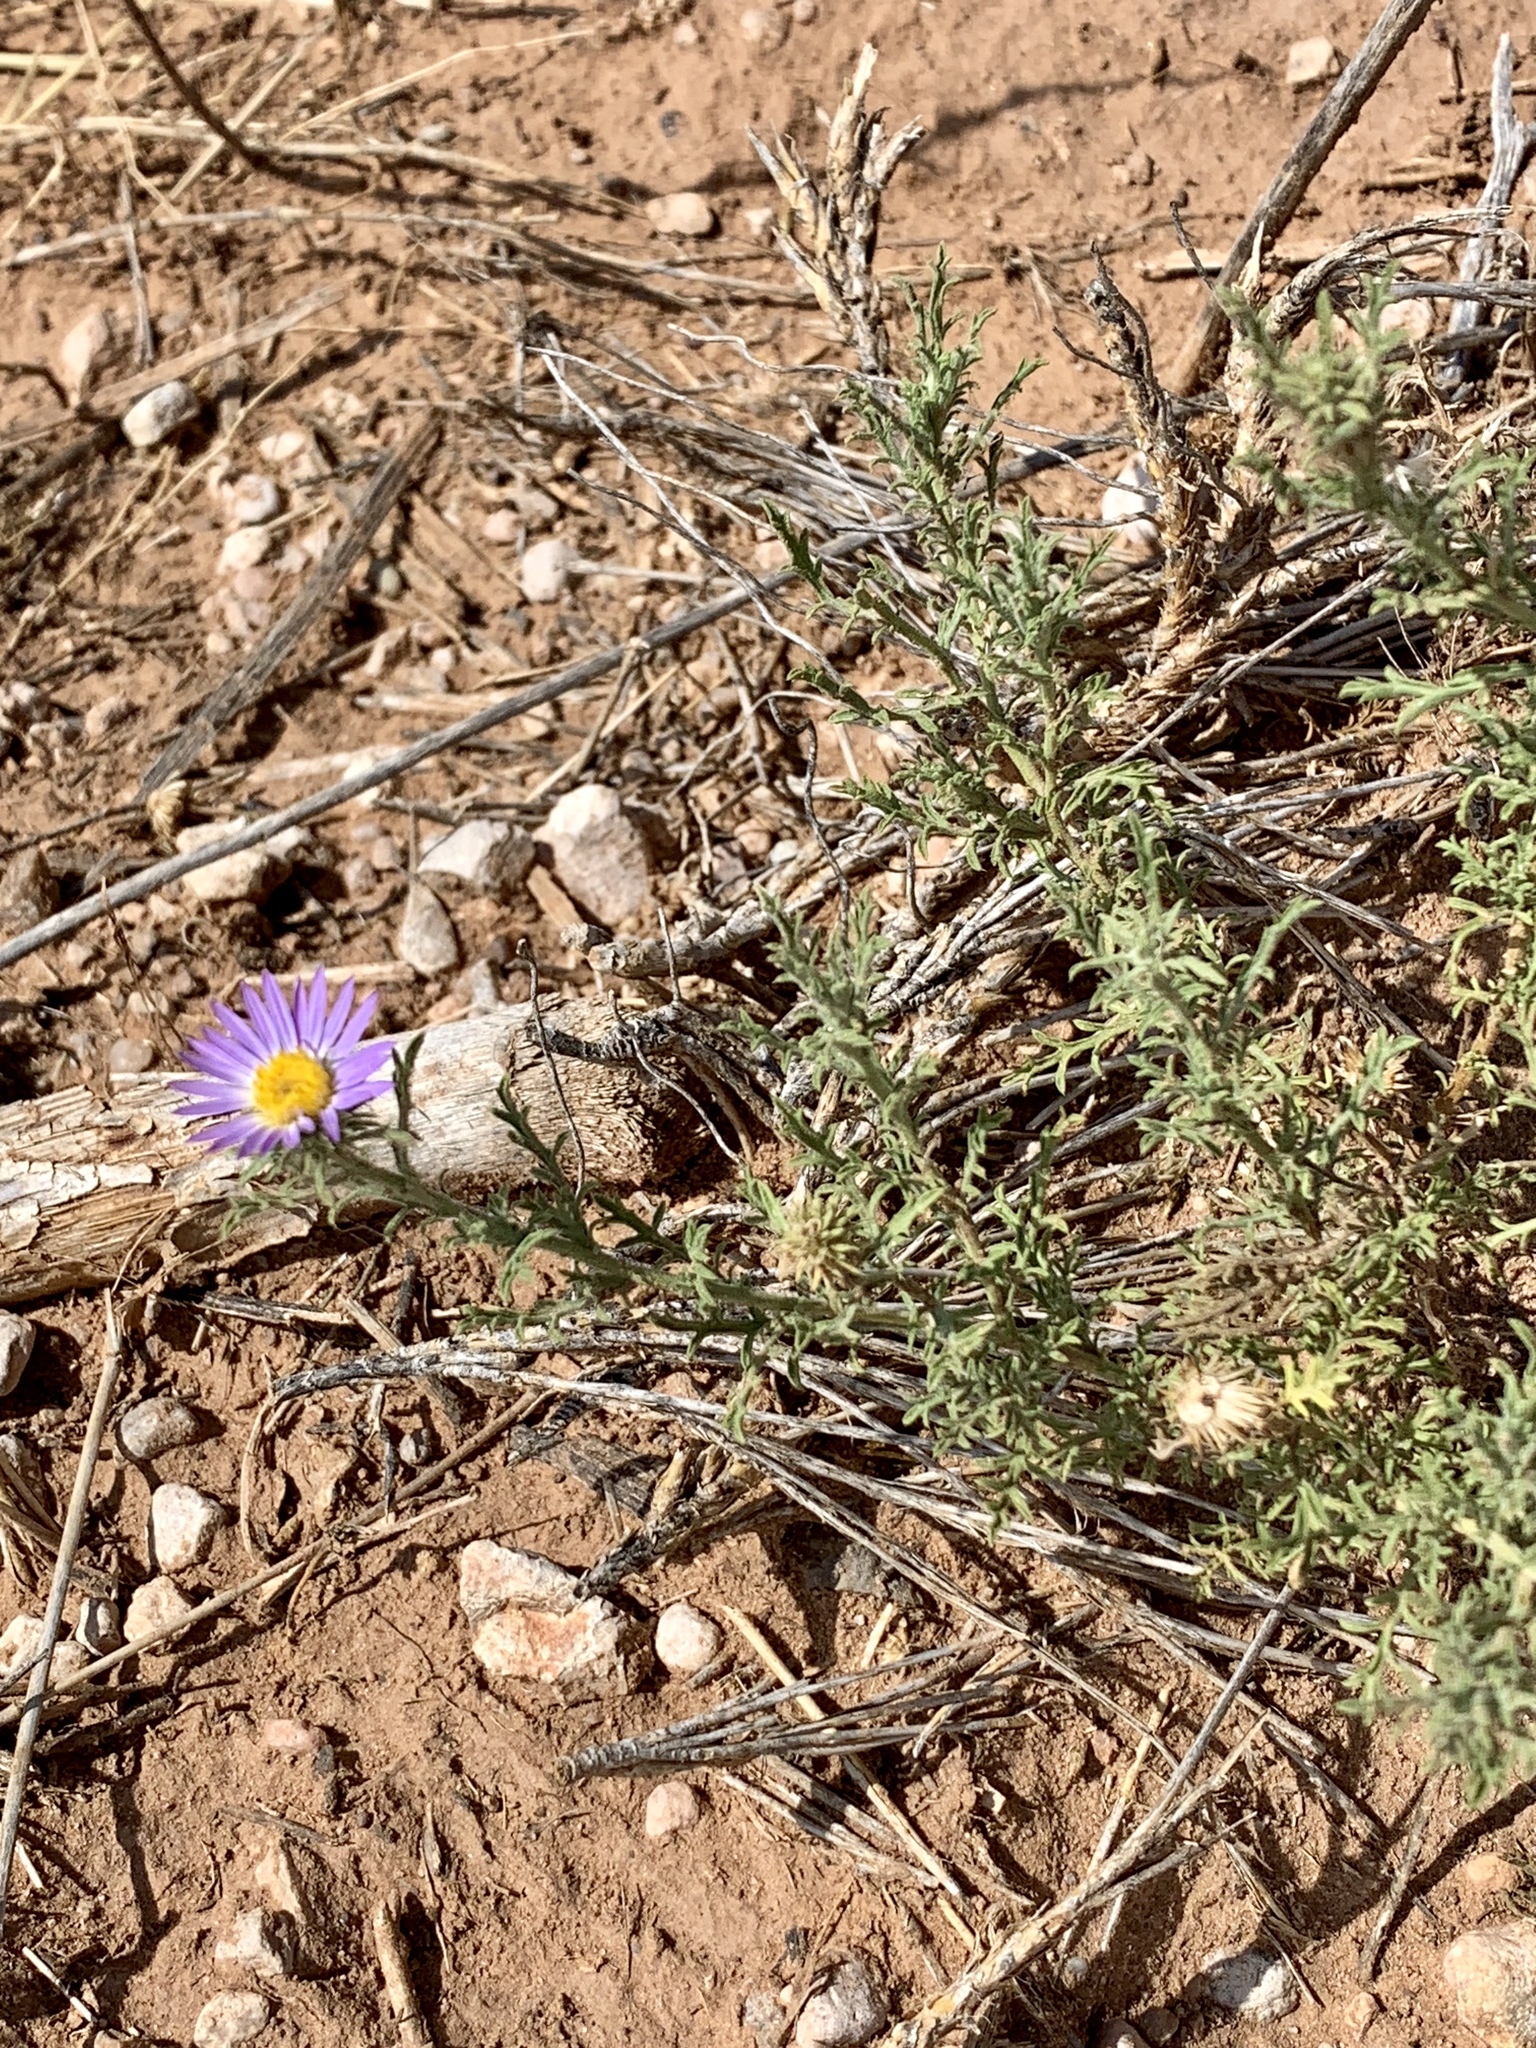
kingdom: Plantae
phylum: Tracheophyta
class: Magnoliopsida
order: Asterales
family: Asteraceae
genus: Machaeranthera
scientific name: Machaeranthera tanacetifolia
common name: Tansy-aster
